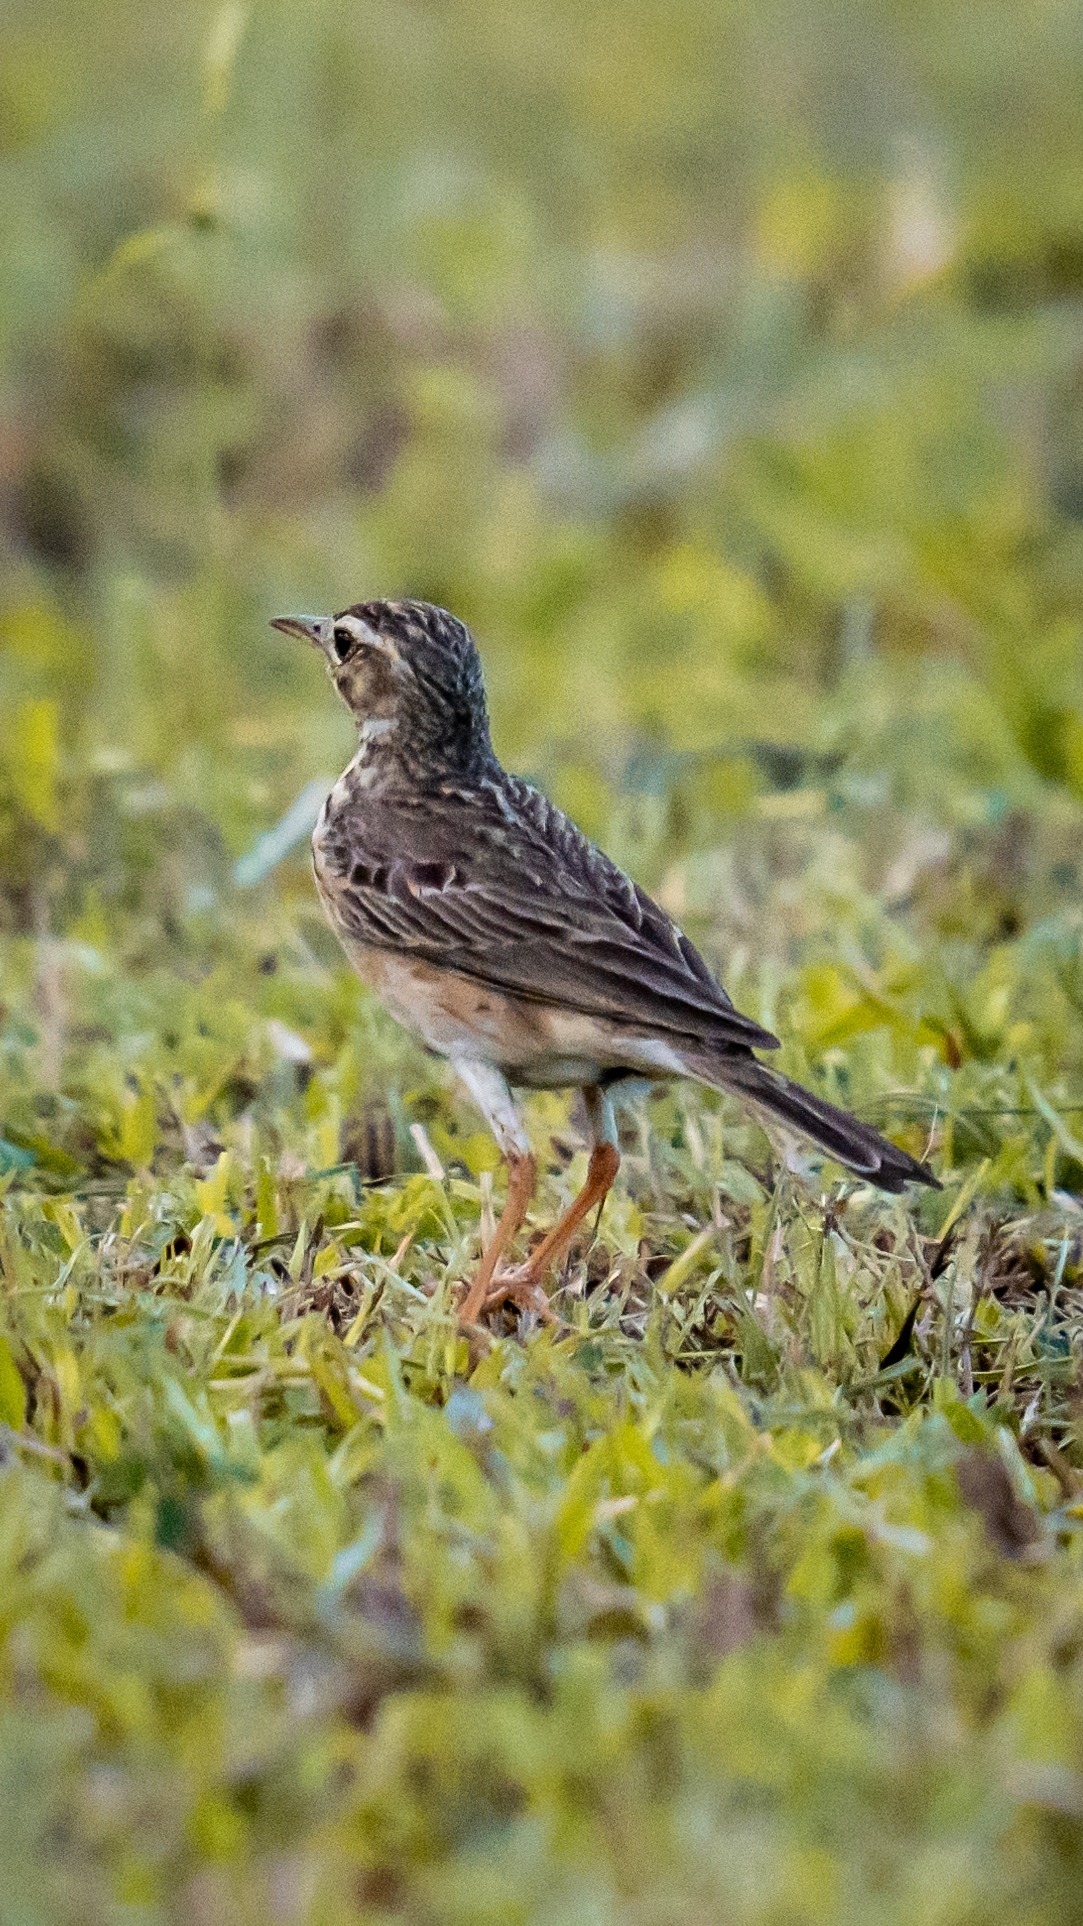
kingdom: Animalia
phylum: Chordata
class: Aves
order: Passeriformes
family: Motacillidae
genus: Anthus
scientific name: Anthus rufulus
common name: Paddyfield pipit
